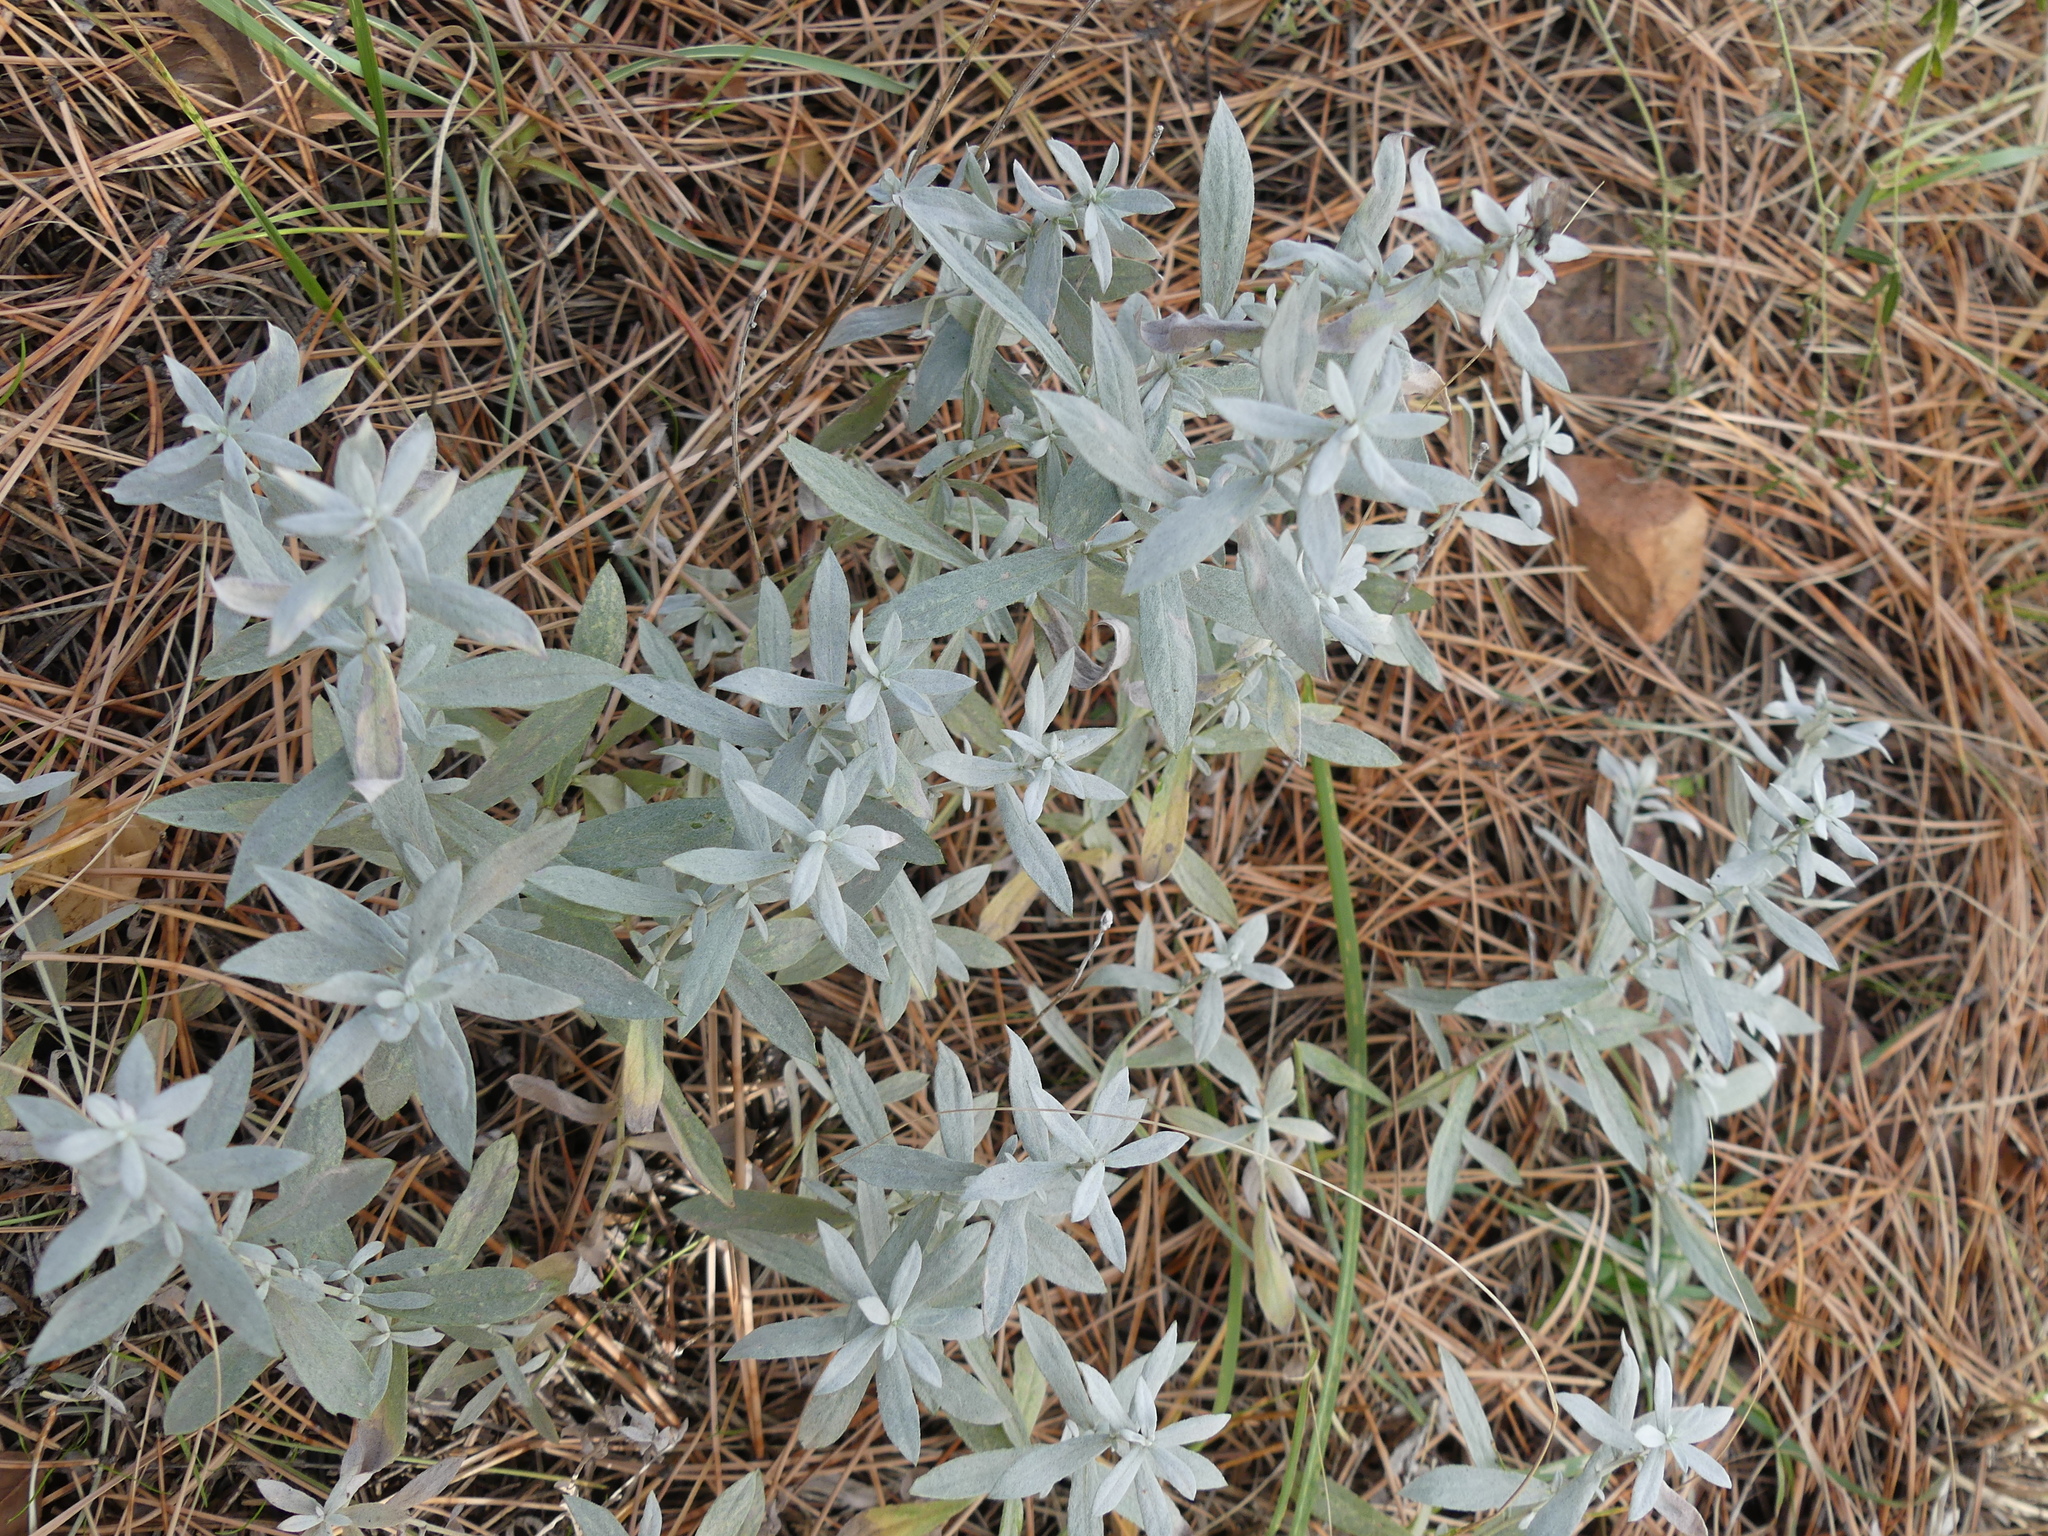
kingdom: Plantae
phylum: Tracheophyta
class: Magnoliopsida
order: Asterales
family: Asteraceae
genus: Artemisia
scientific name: Artemisia ludoviciana
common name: Western mugwort
